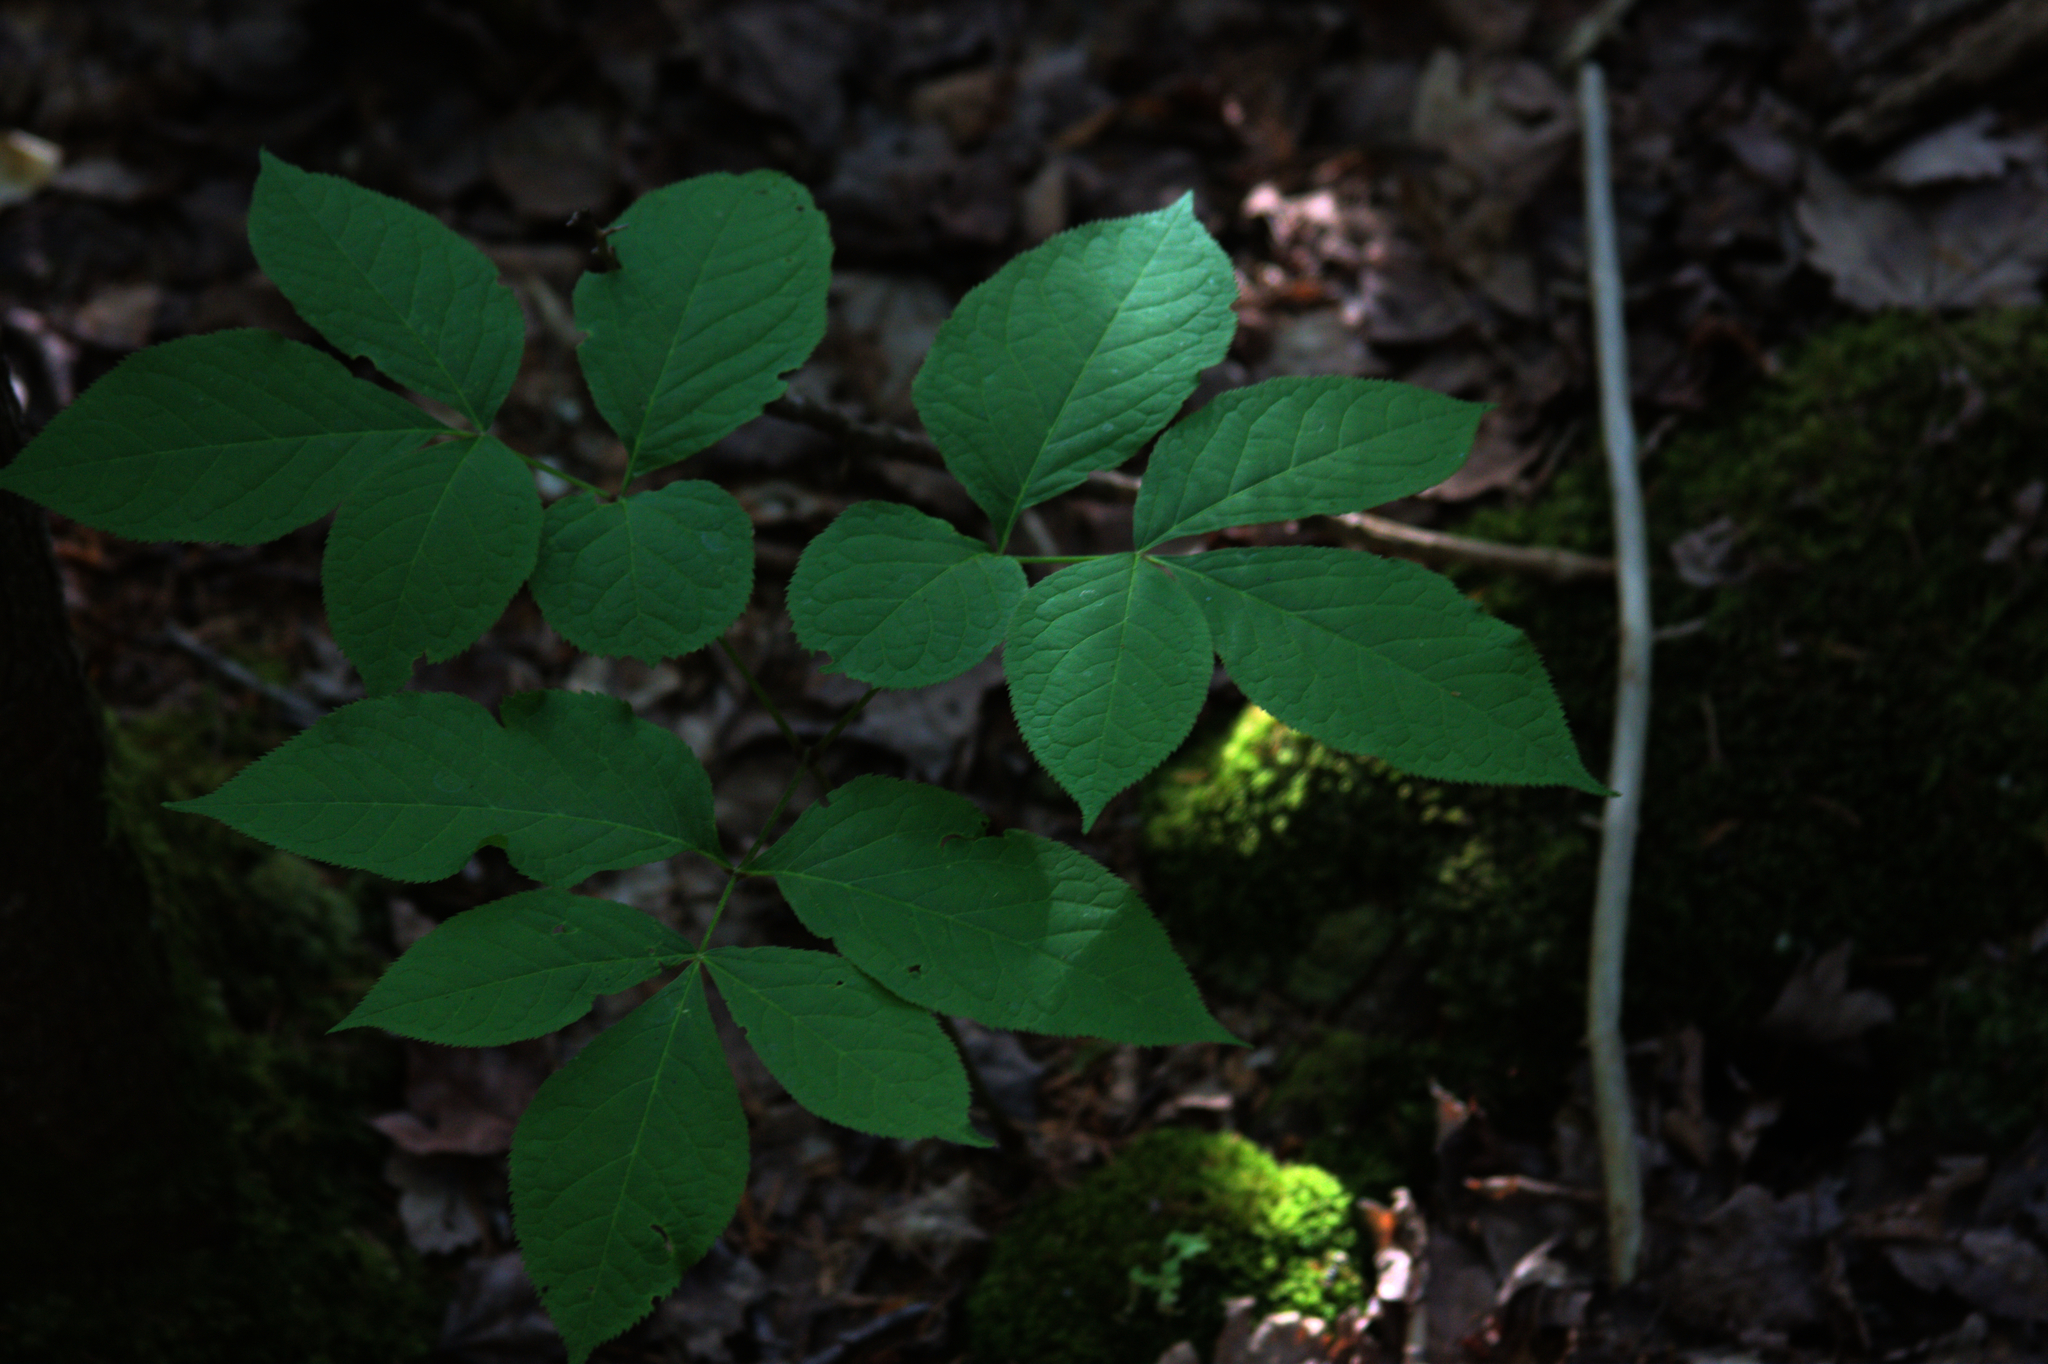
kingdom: Plantae
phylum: Tracheophyta
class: Magnoliopsida
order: Apiales
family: Araliaceae
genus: Aralia
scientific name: Aralia nudicaulis
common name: Wild sarsaparilla
